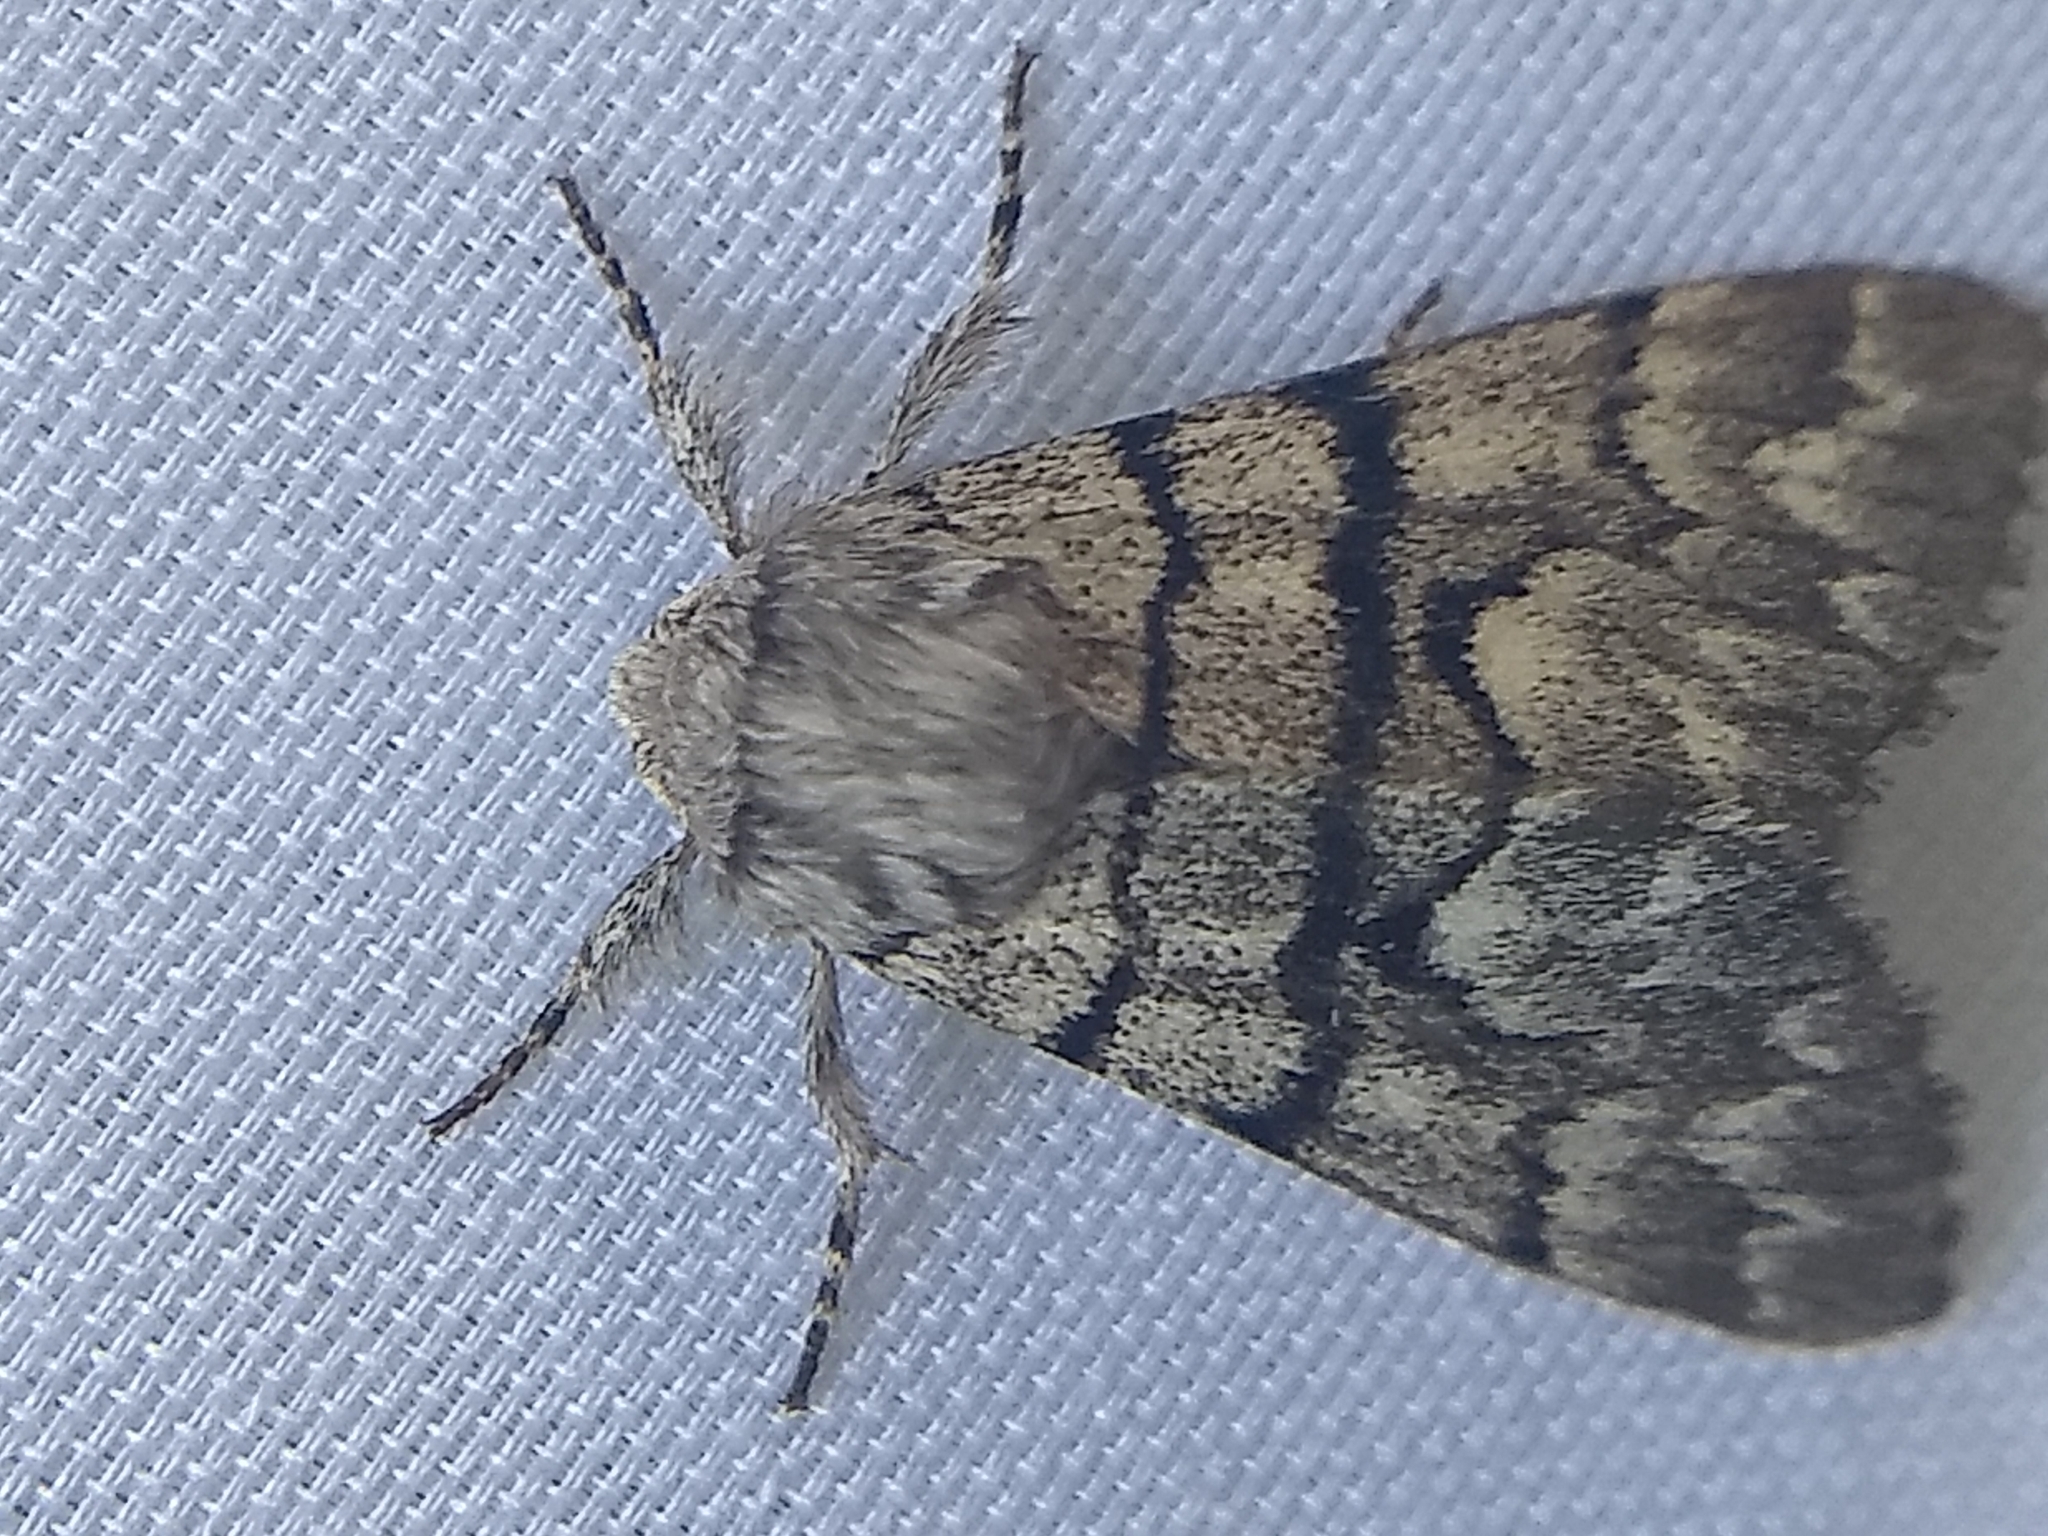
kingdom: Animalia
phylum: Arthropoda
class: Insecta
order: Lepidoptera
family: Noctuidae
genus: Panthea
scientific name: Panthea furcilla
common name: Eastern panthea moth
